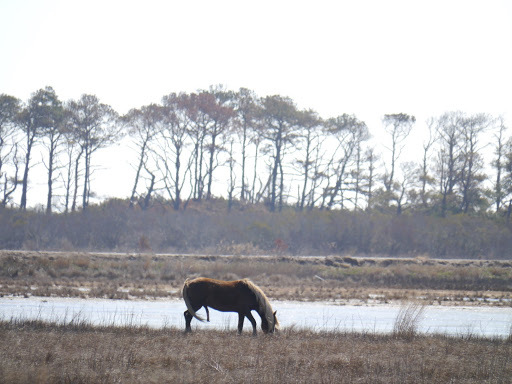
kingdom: Animalia
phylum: Chordata
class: Mammalia
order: Perissodactyla
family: Equidae
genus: Equus
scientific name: Equus caballus
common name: Horse
